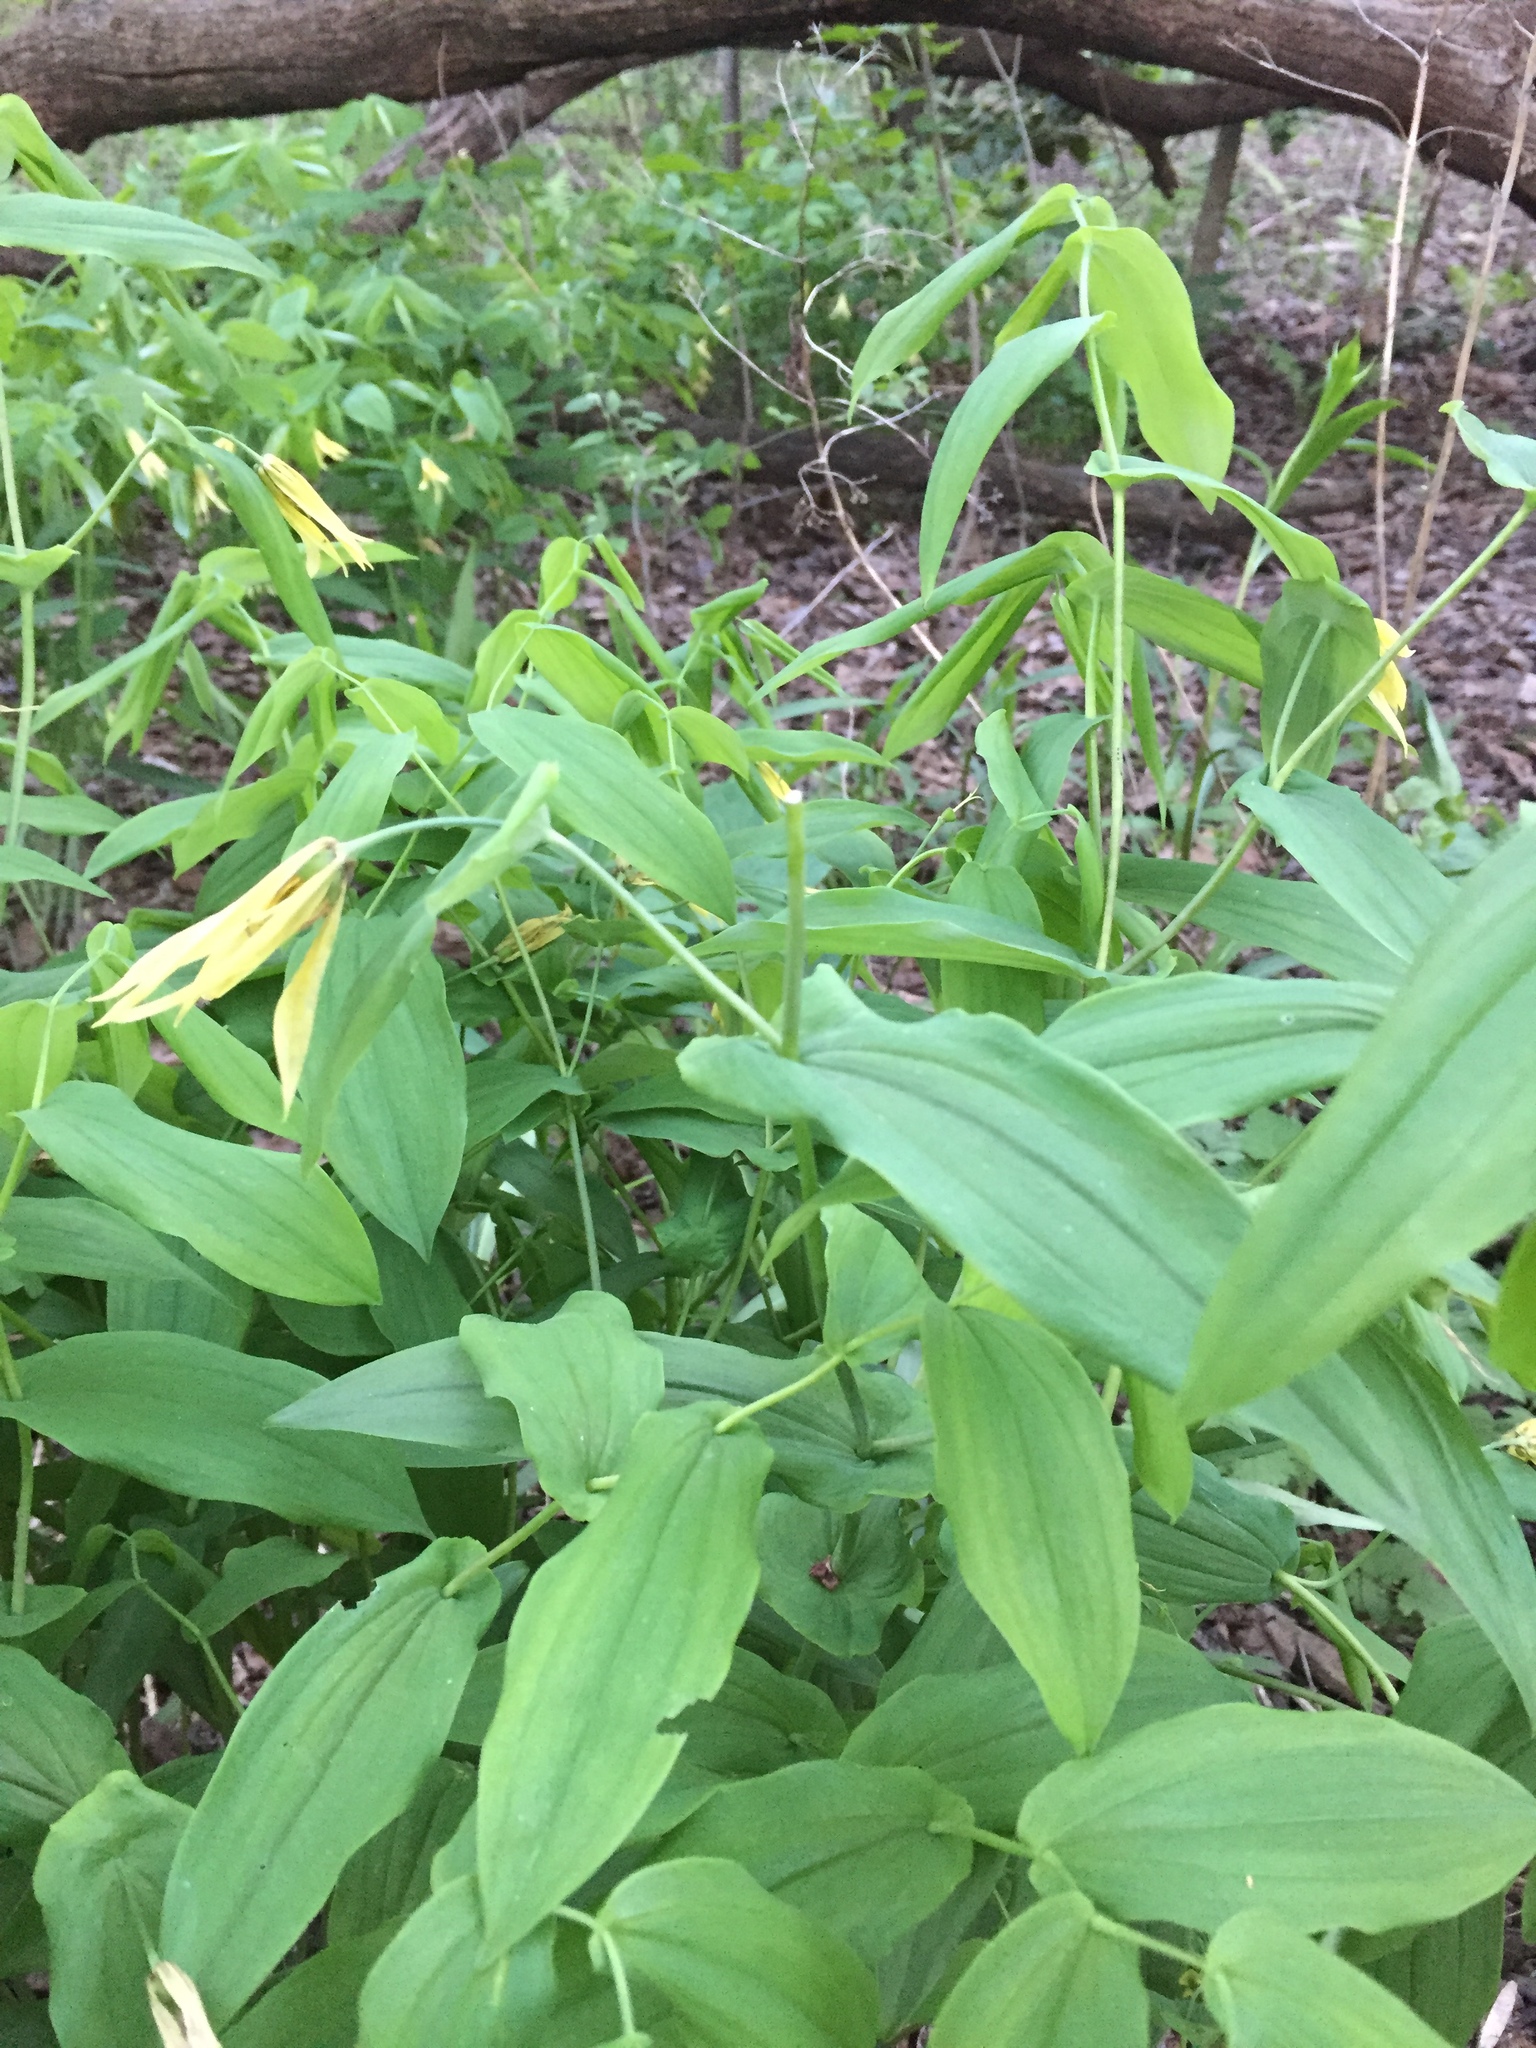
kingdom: Plantae
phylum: Tracheophyta
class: Liliopsida
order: Liliales
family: Colchicaceae
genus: Uvularia
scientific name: Uvularia grandiflora
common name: Bellwort
